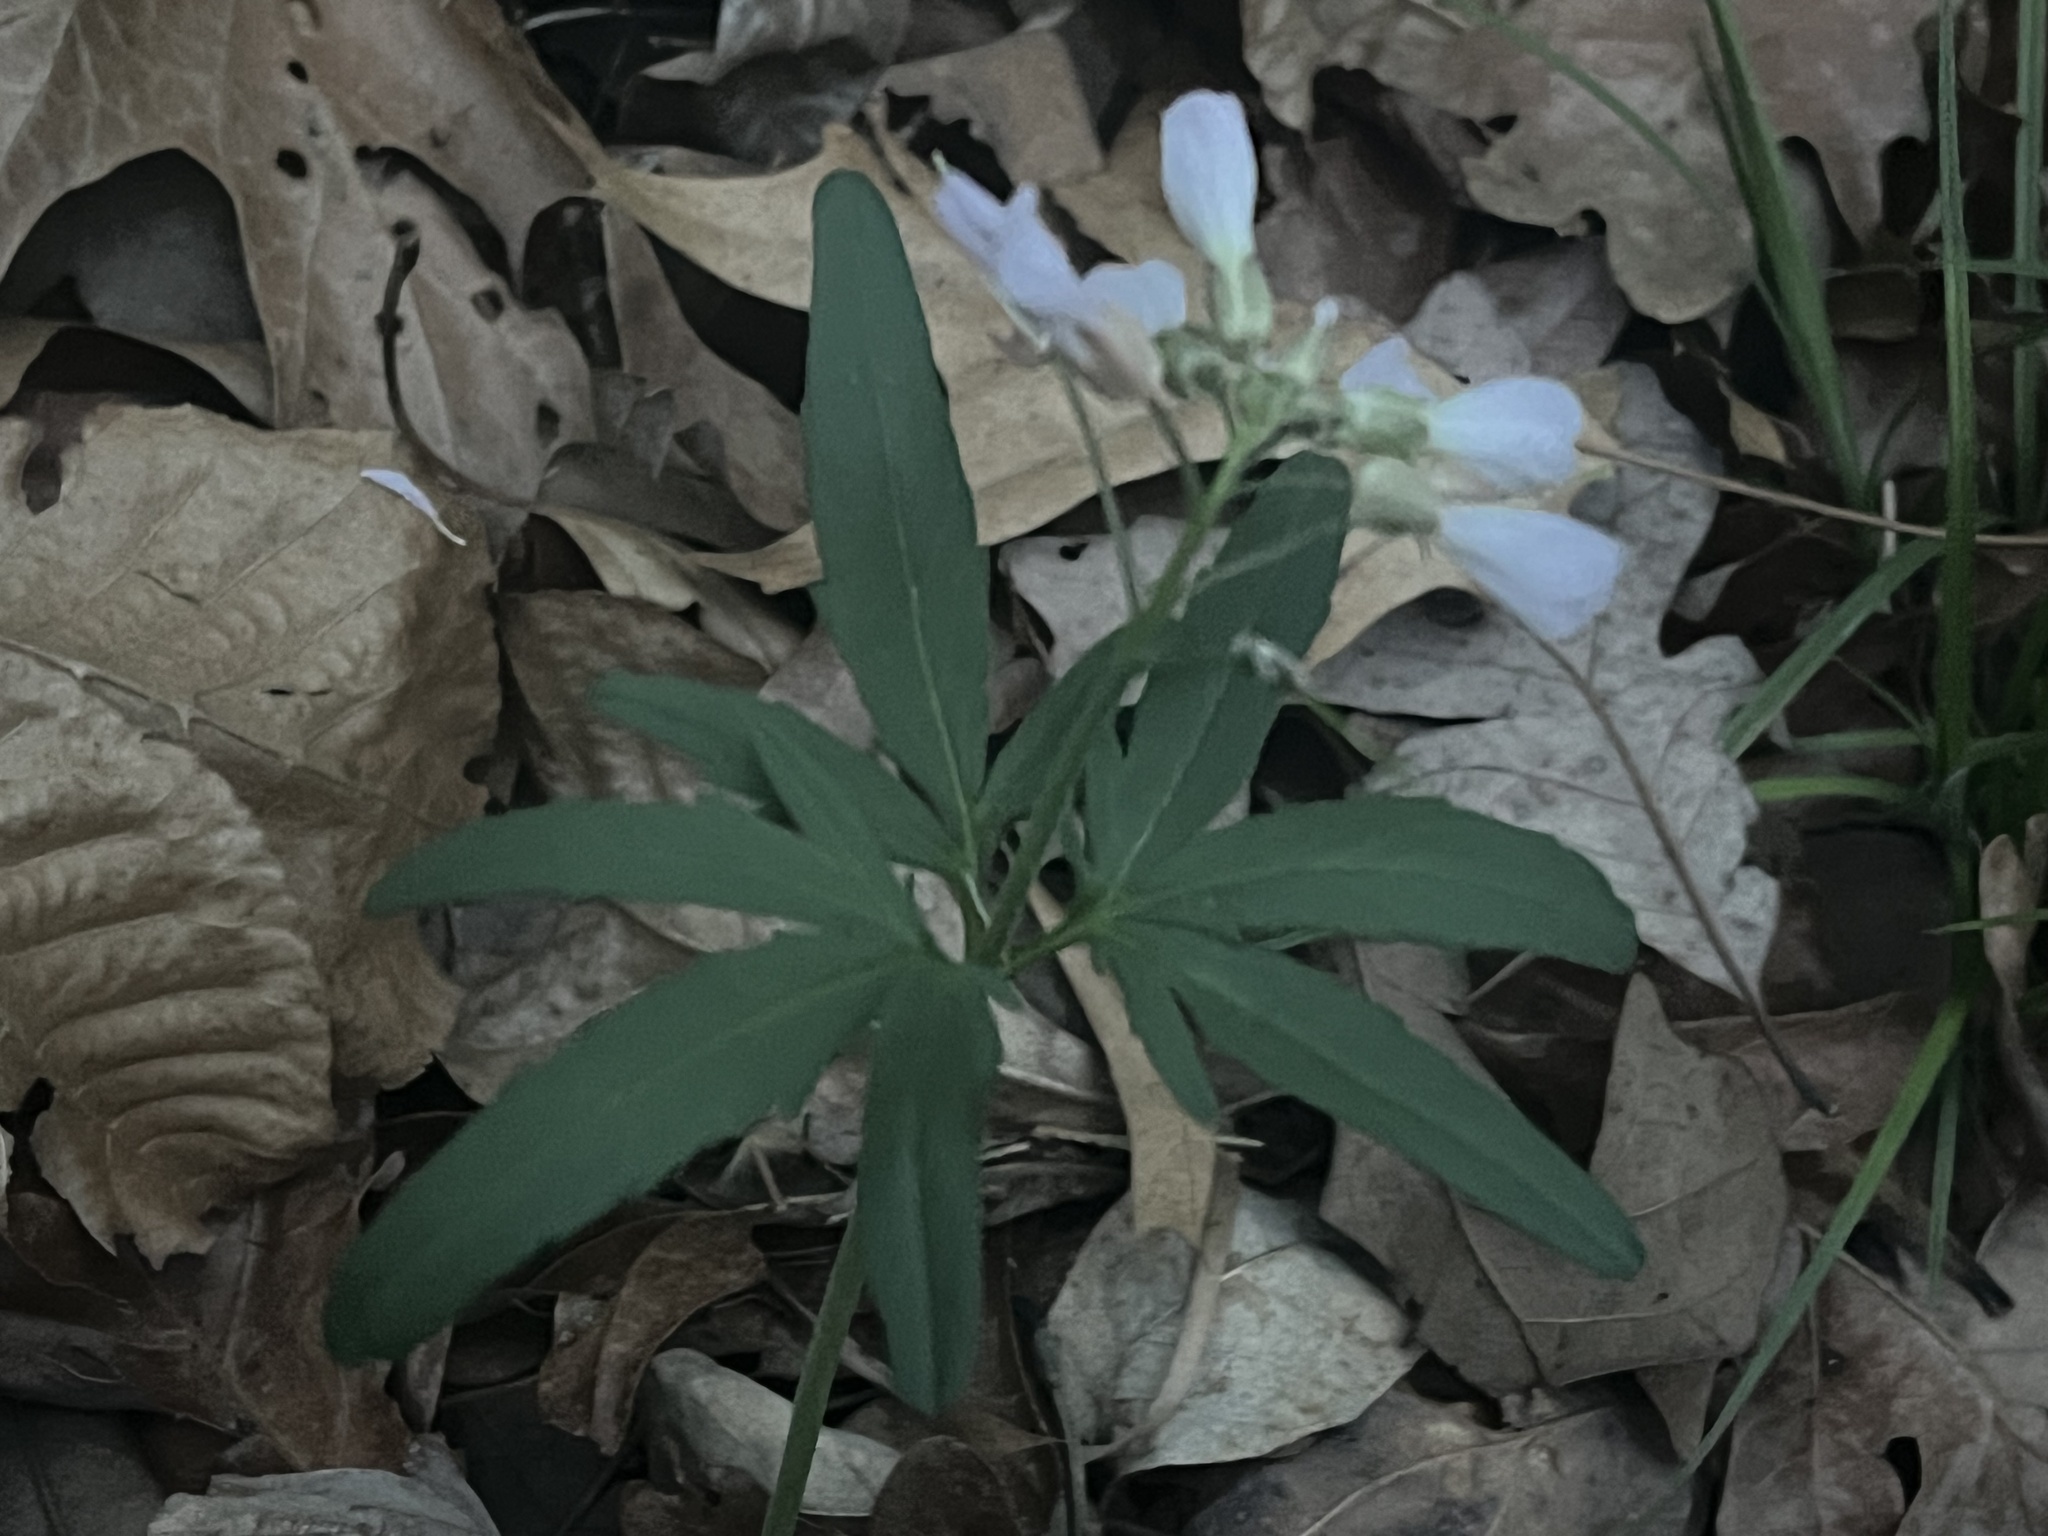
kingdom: Plantae
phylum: Tracheophyta
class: Magnoliopsida
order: Brassicales
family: Brassicaceae
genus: Cardamine
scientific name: Cardamine concatenata
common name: Cut-leaf toothcup
